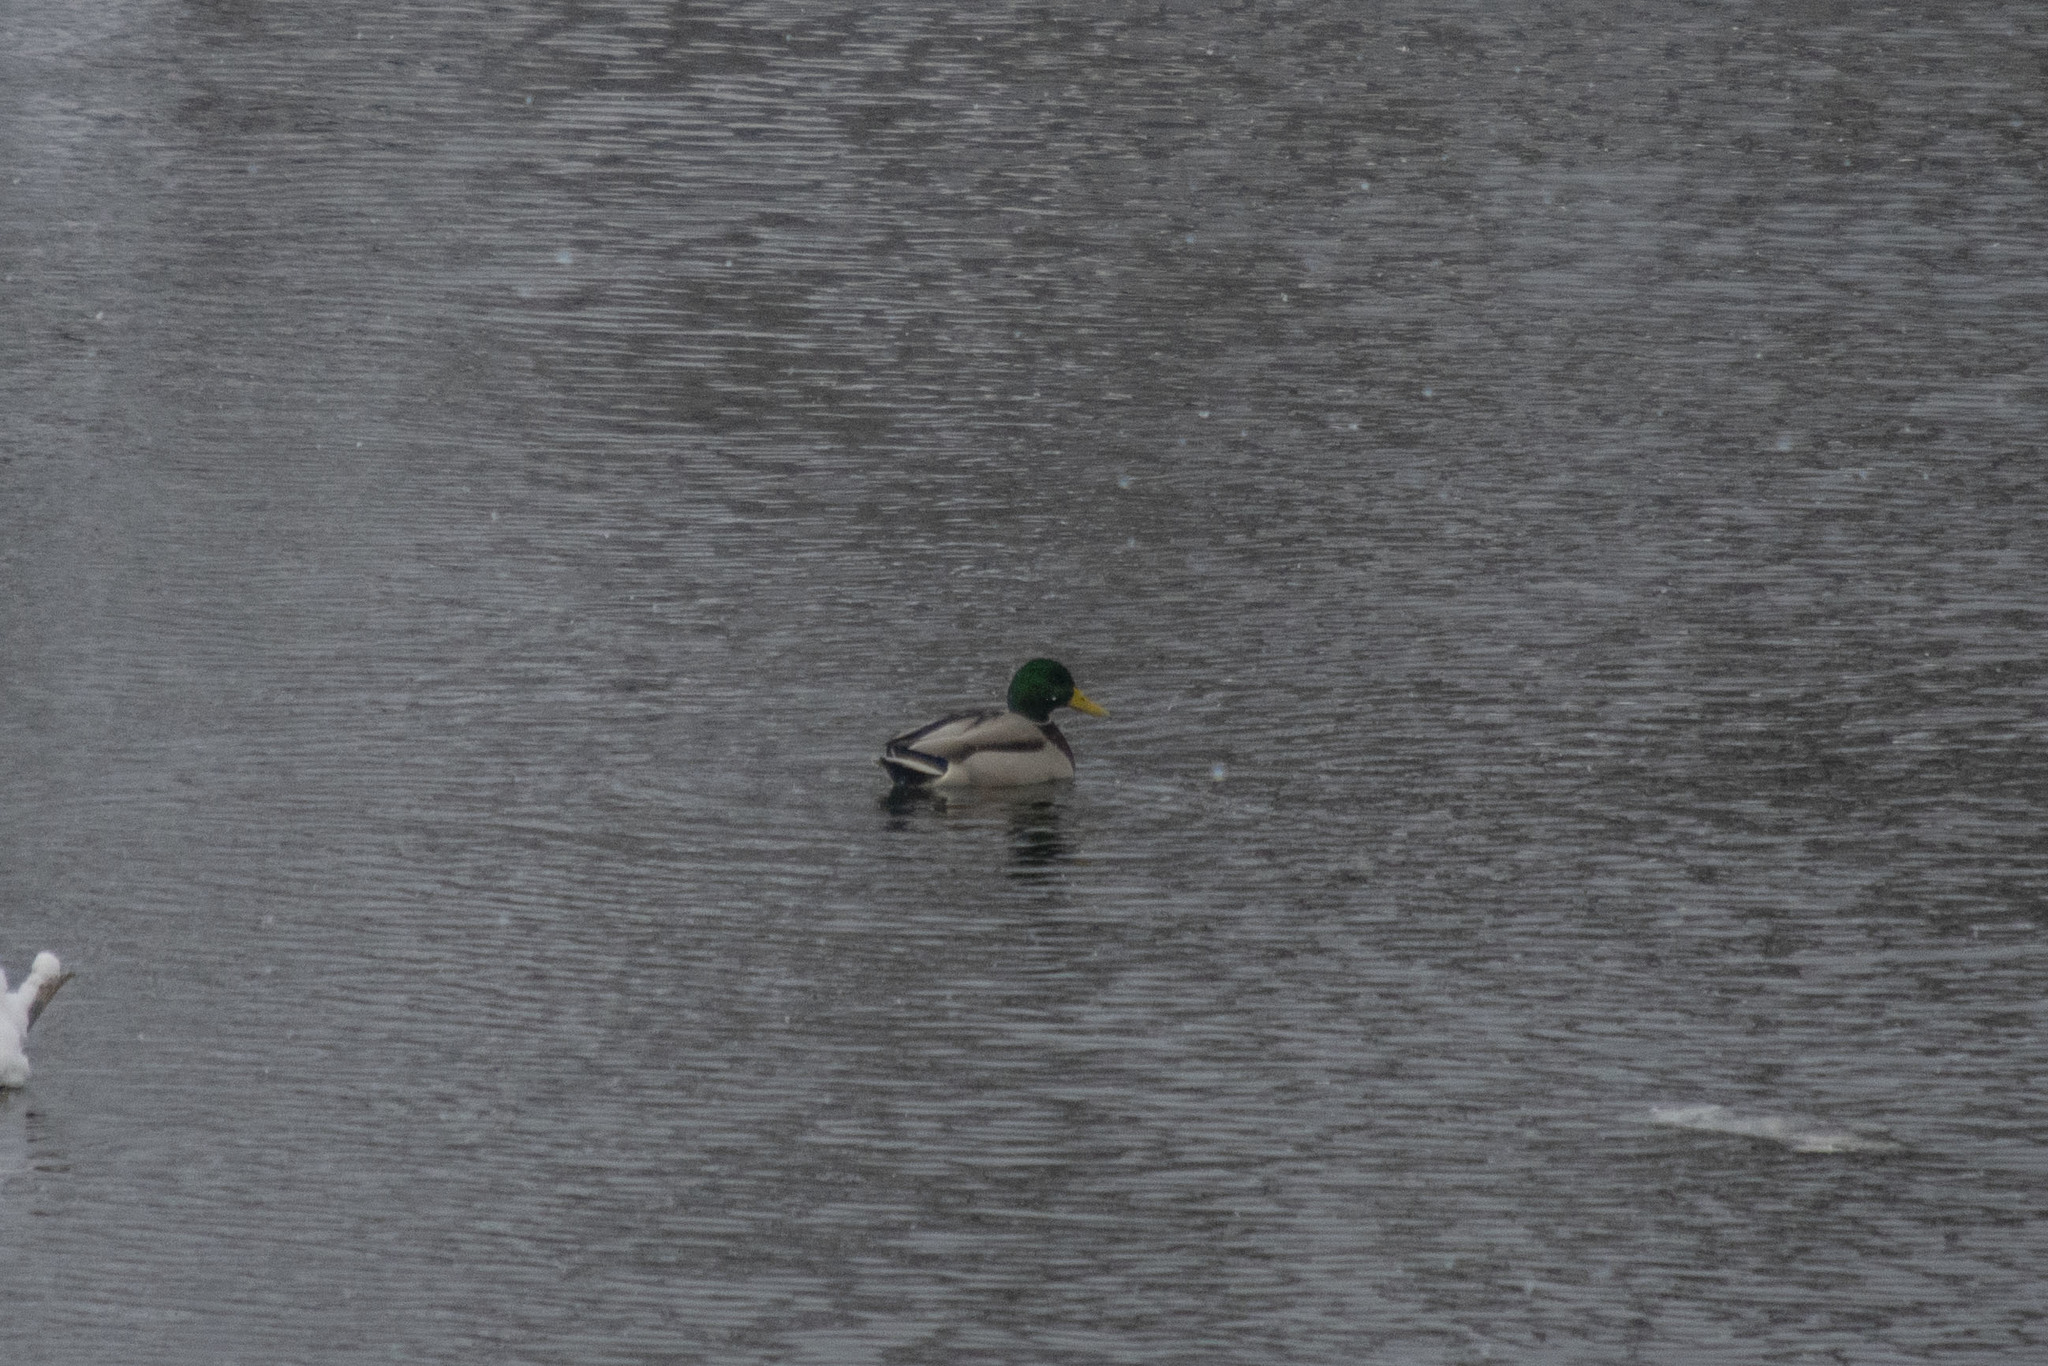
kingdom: Animalia
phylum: Chordata
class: Aves
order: Anseriformes
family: Anatidae
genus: Anas
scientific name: Anas platyrhynchos
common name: Mallard
